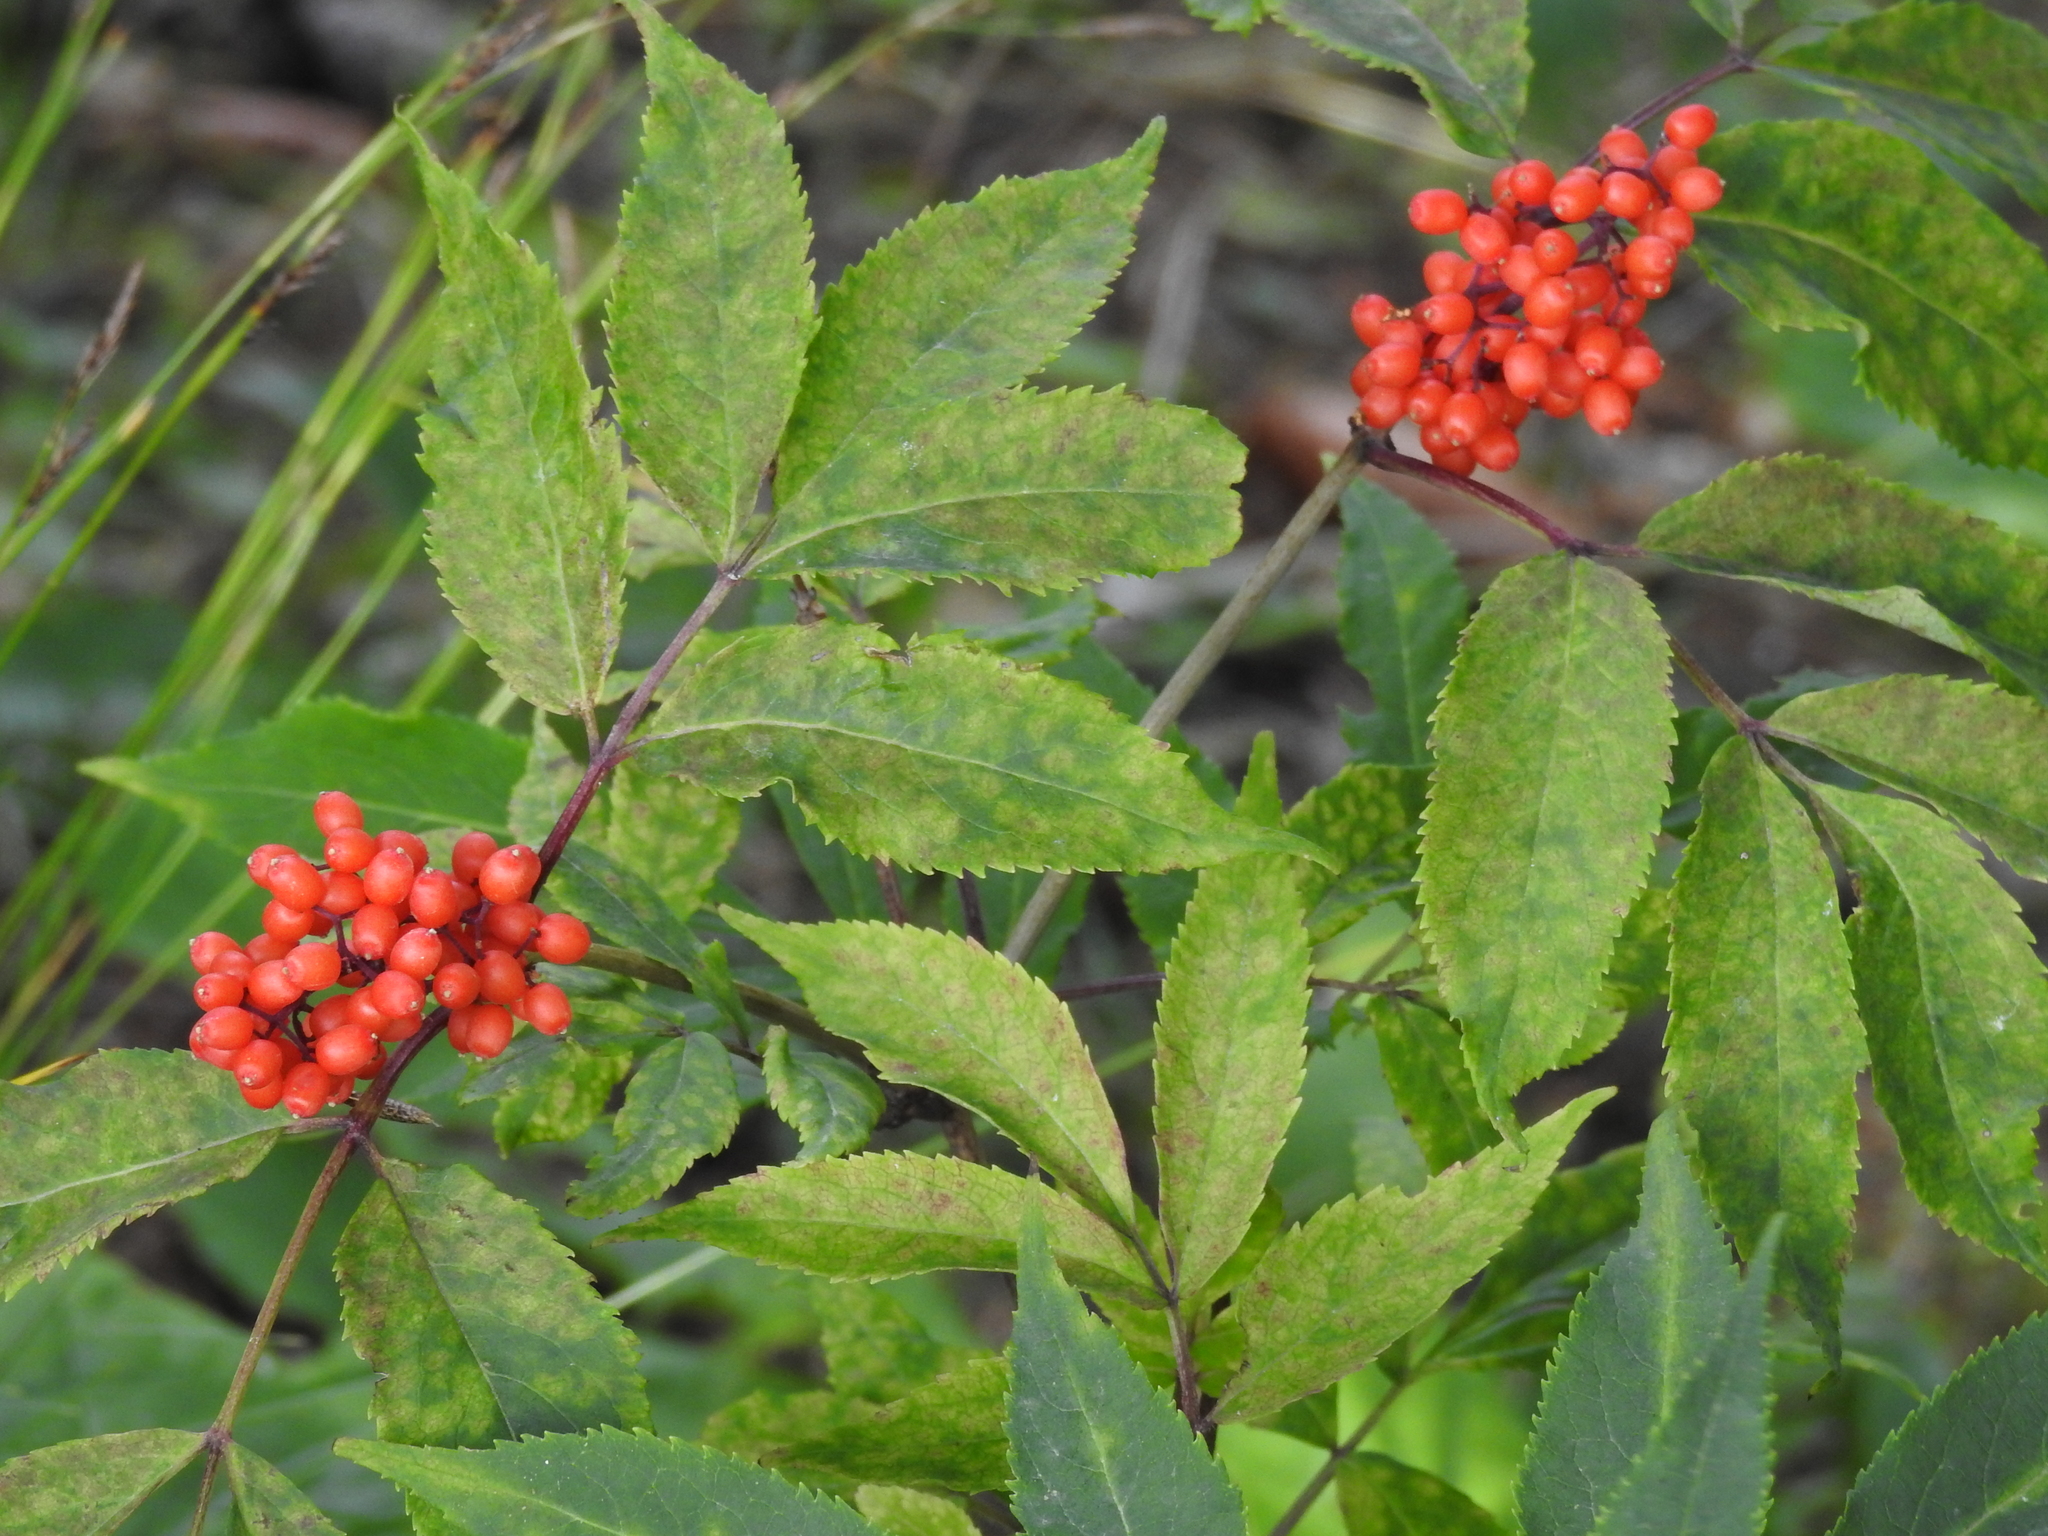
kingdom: Plantae
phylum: Tracheophyta
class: Magnoliopsida
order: Dipsacales
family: Viburnaceae
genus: Sambucus
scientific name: Sambucus racemosa
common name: Red-berried elder
